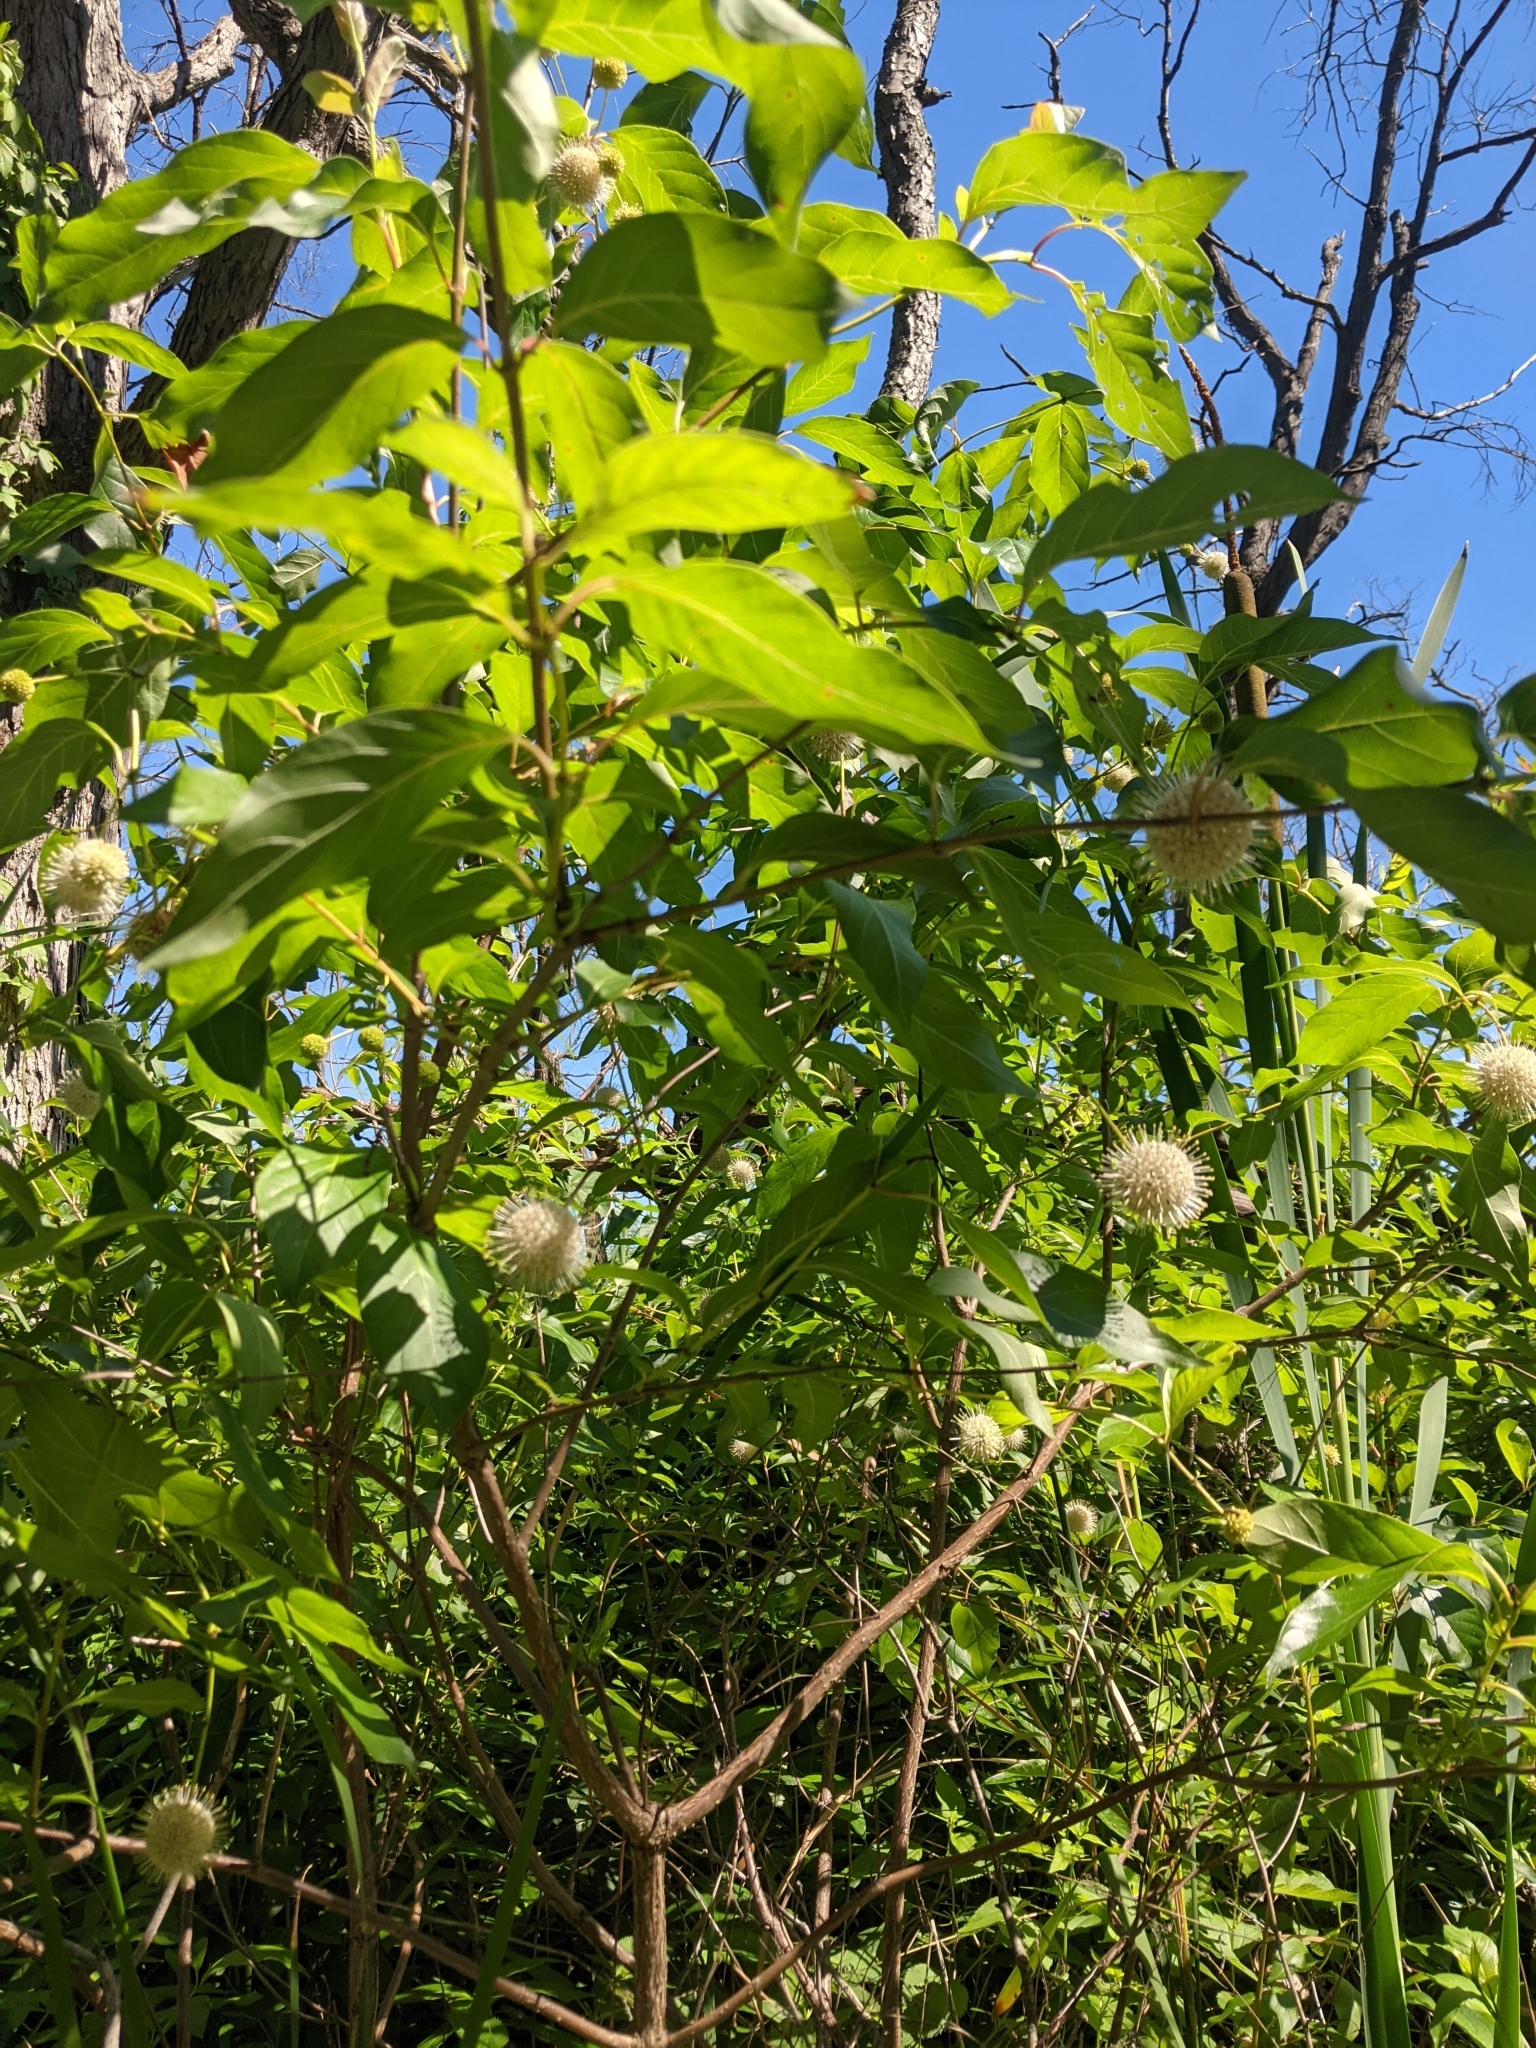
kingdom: Plantae
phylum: Tracheophyta
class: Magnoliopsida
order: Gentianales
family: Rubiaceae
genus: Cephalanthus
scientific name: Cephalanthus occidentalis
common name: Button-willow
